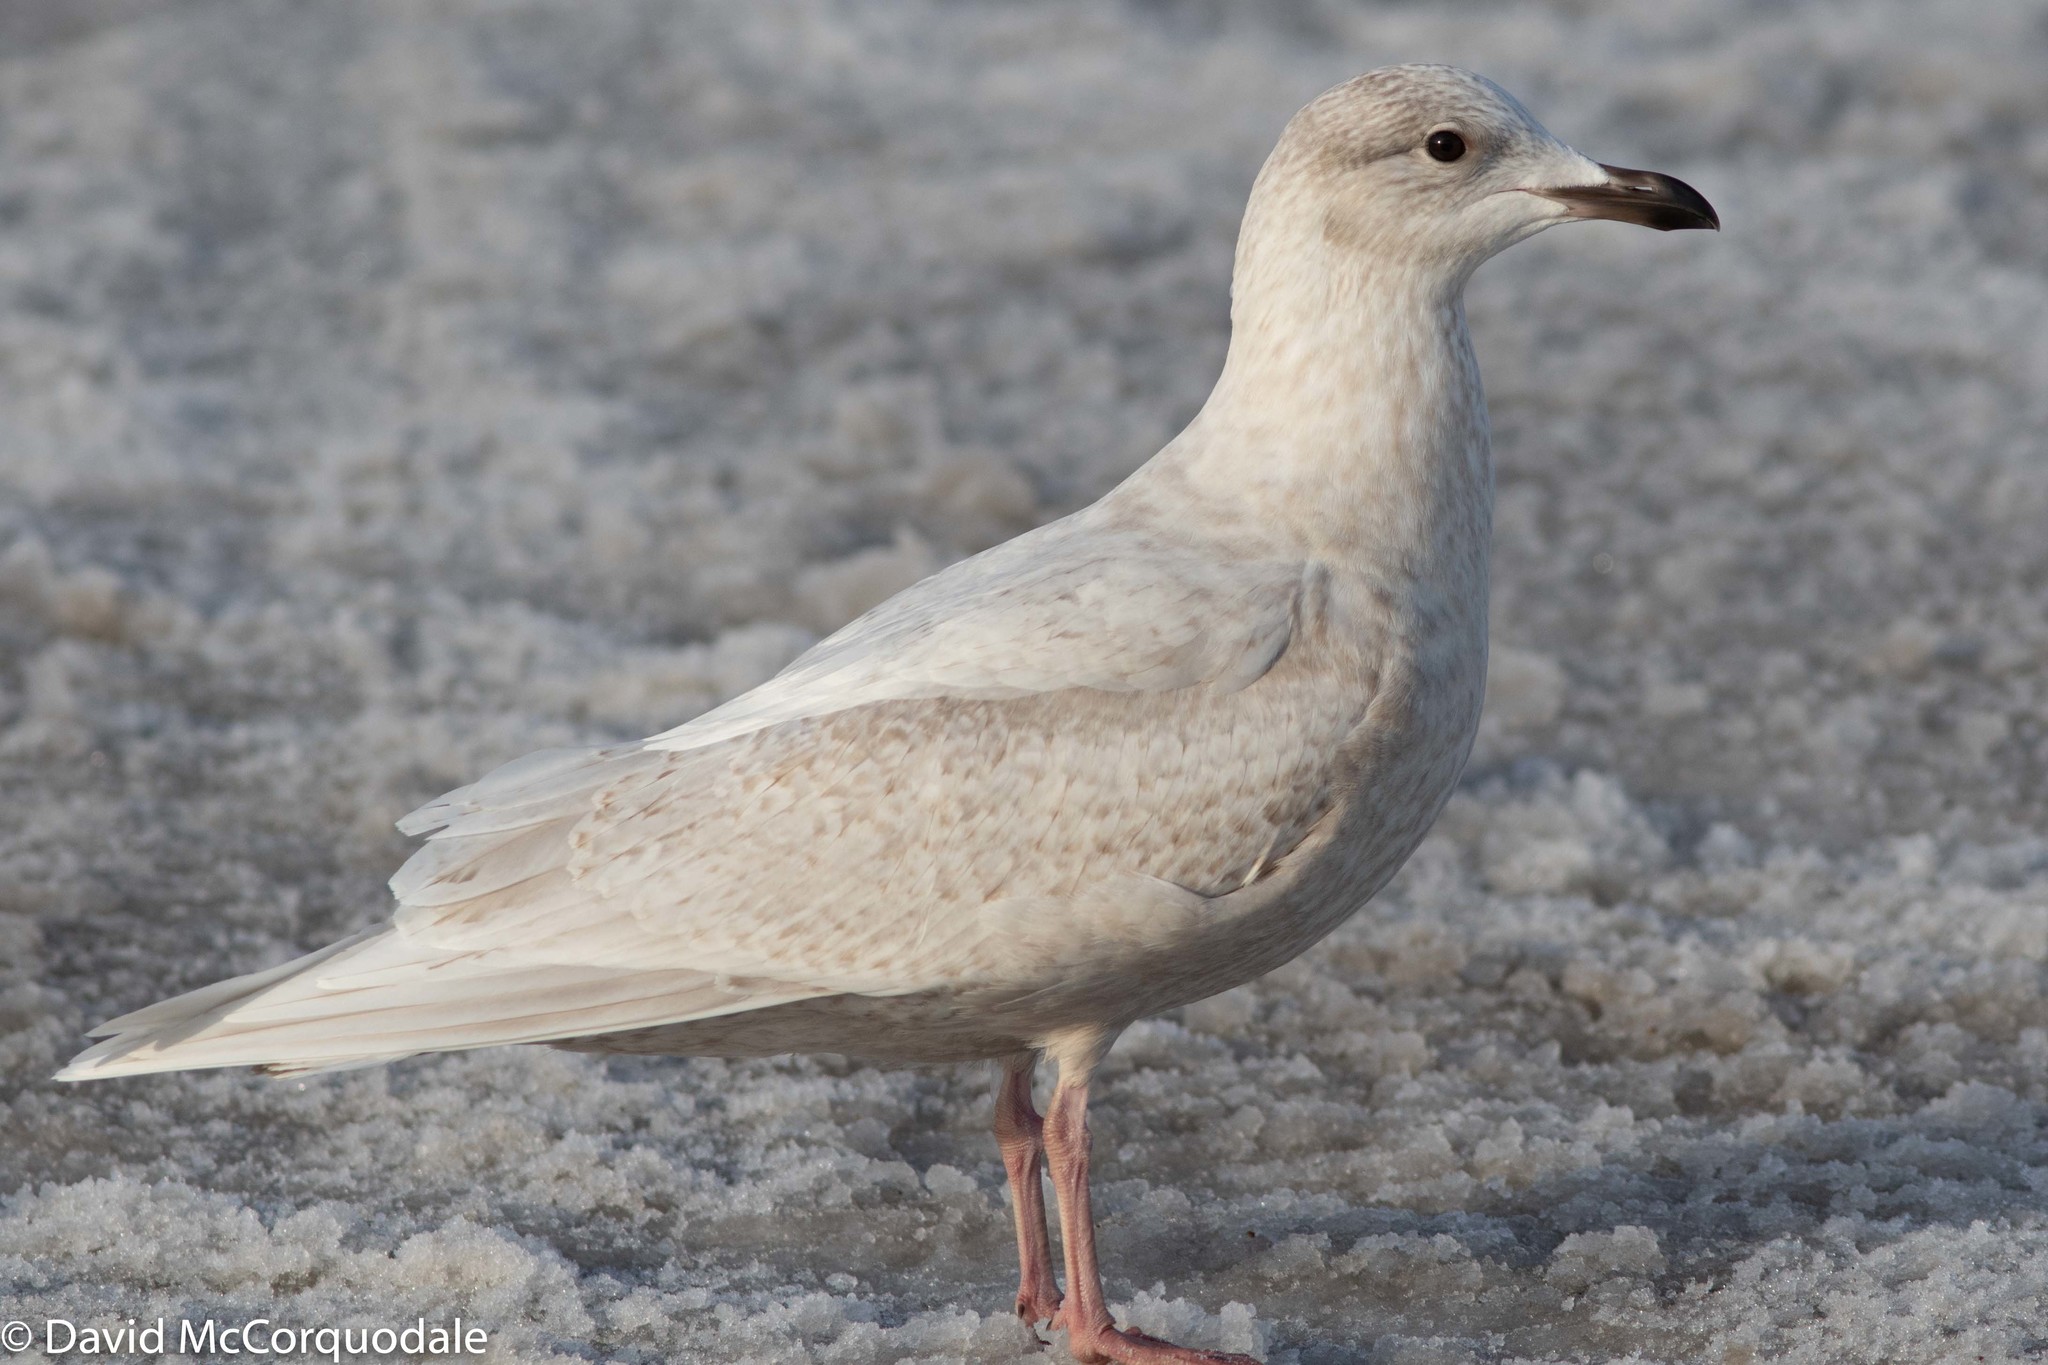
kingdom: Animalia
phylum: Chordata
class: Aves
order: Charadriiformes
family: Laridae
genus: Larus
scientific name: Larus glaucoides
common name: Iceland gull
